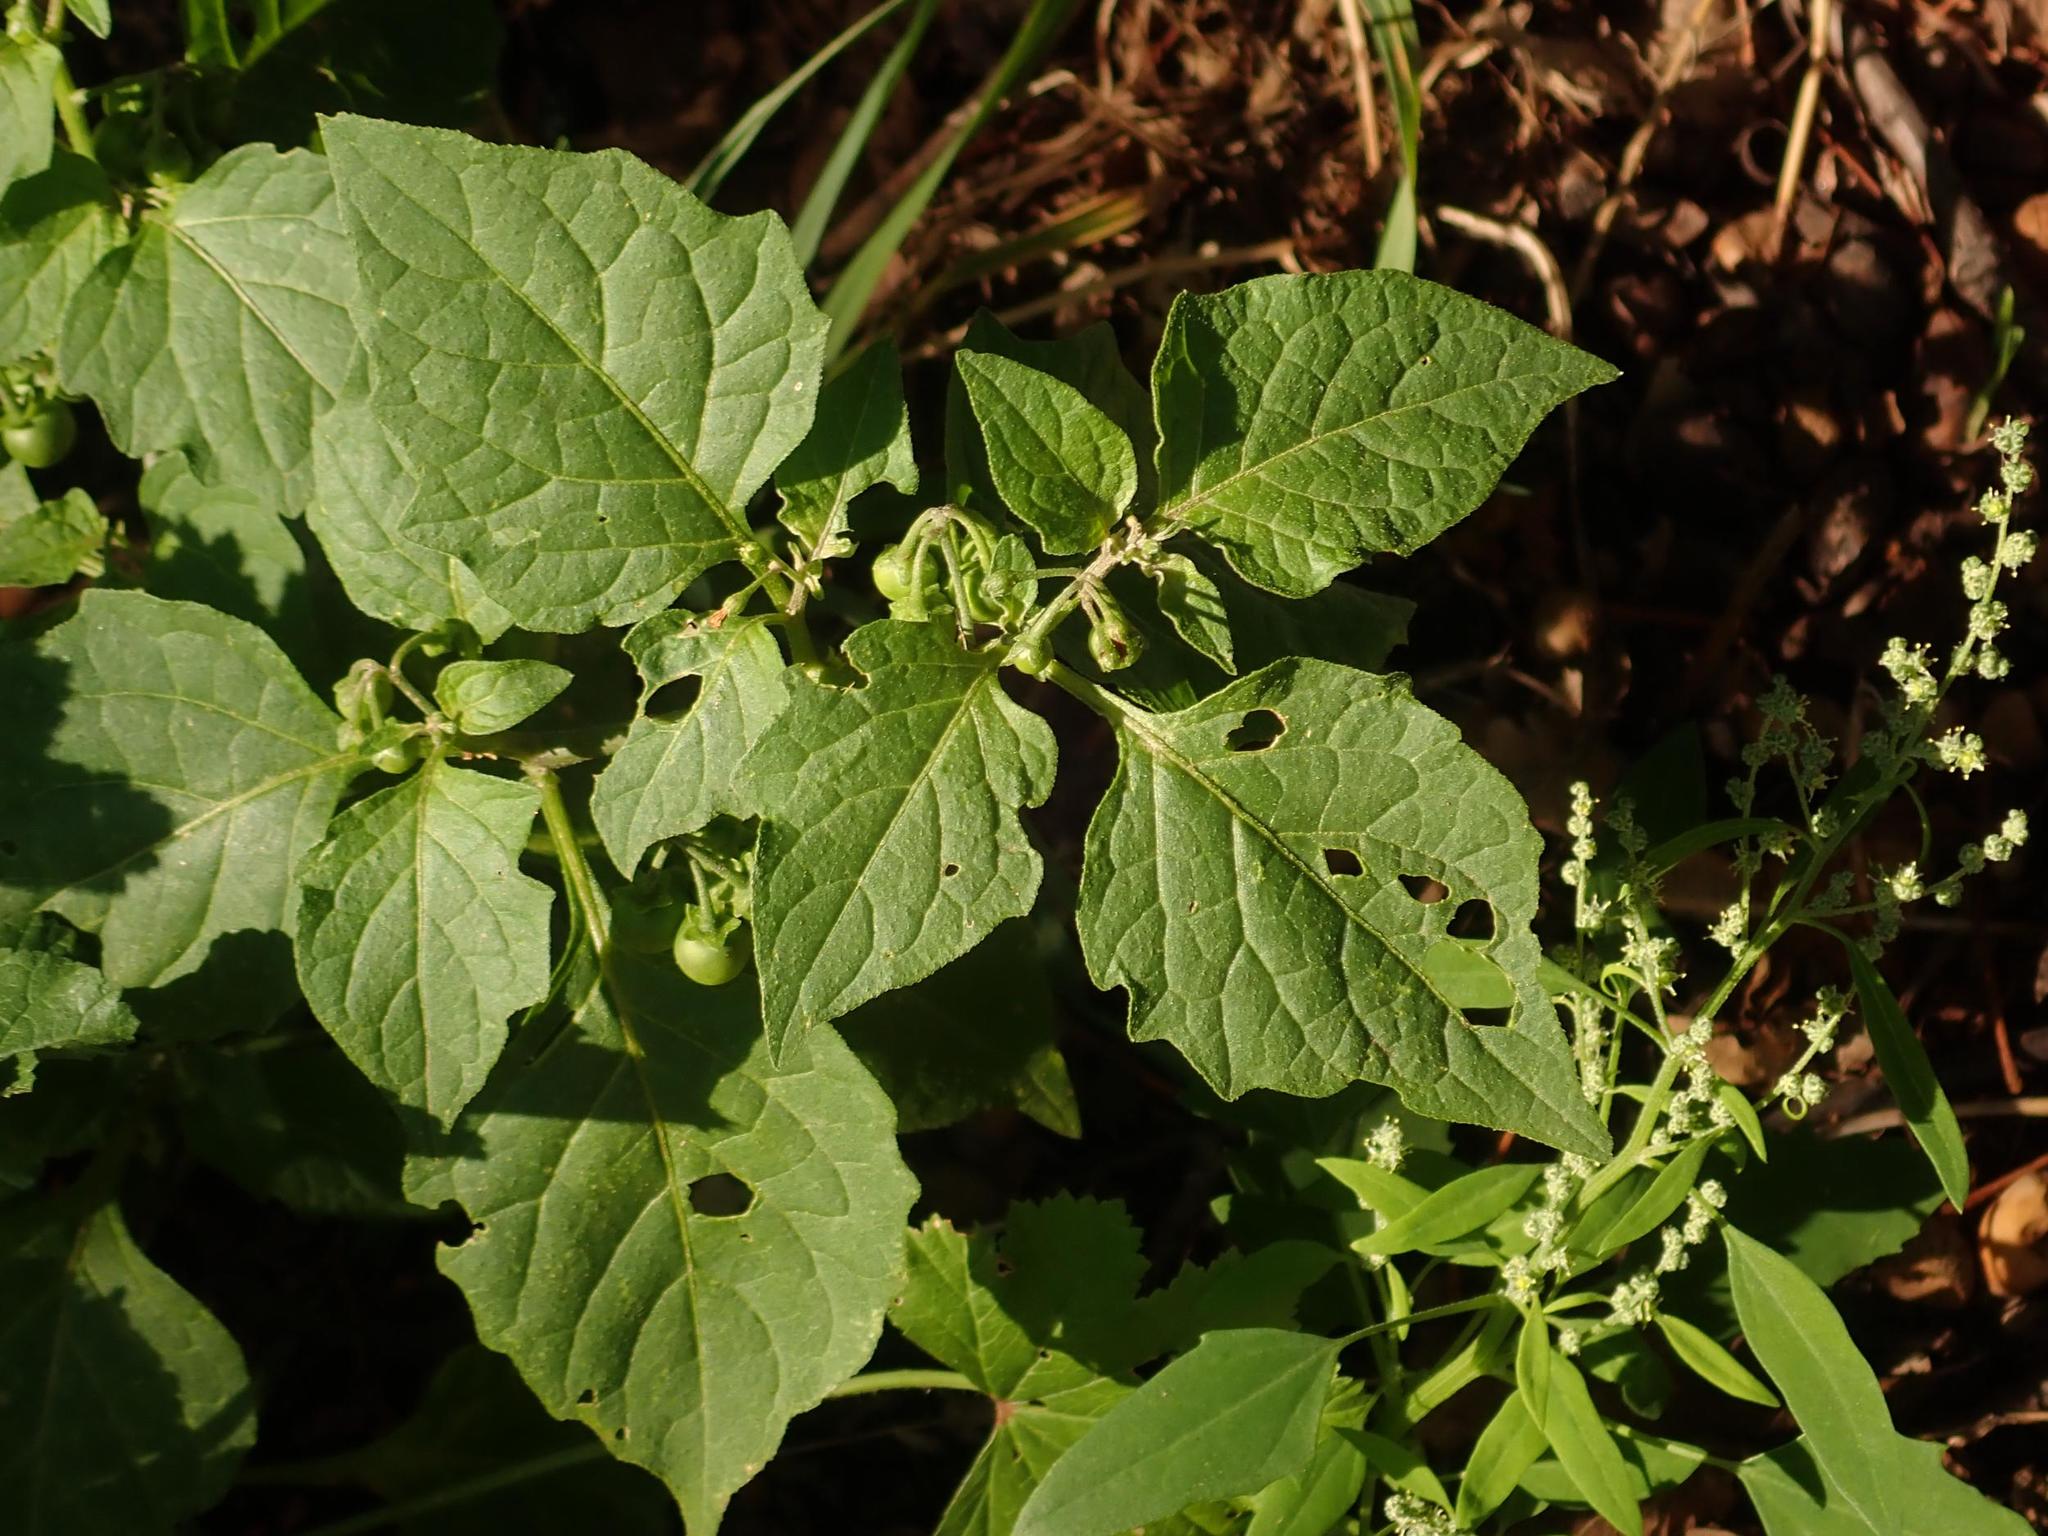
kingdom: Plantae
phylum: Tracheophyta
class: Magnoliopsida
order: Solanales
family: Solanaceae
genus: Solanum
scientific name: Solanum nigrum
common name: Black nightshade
